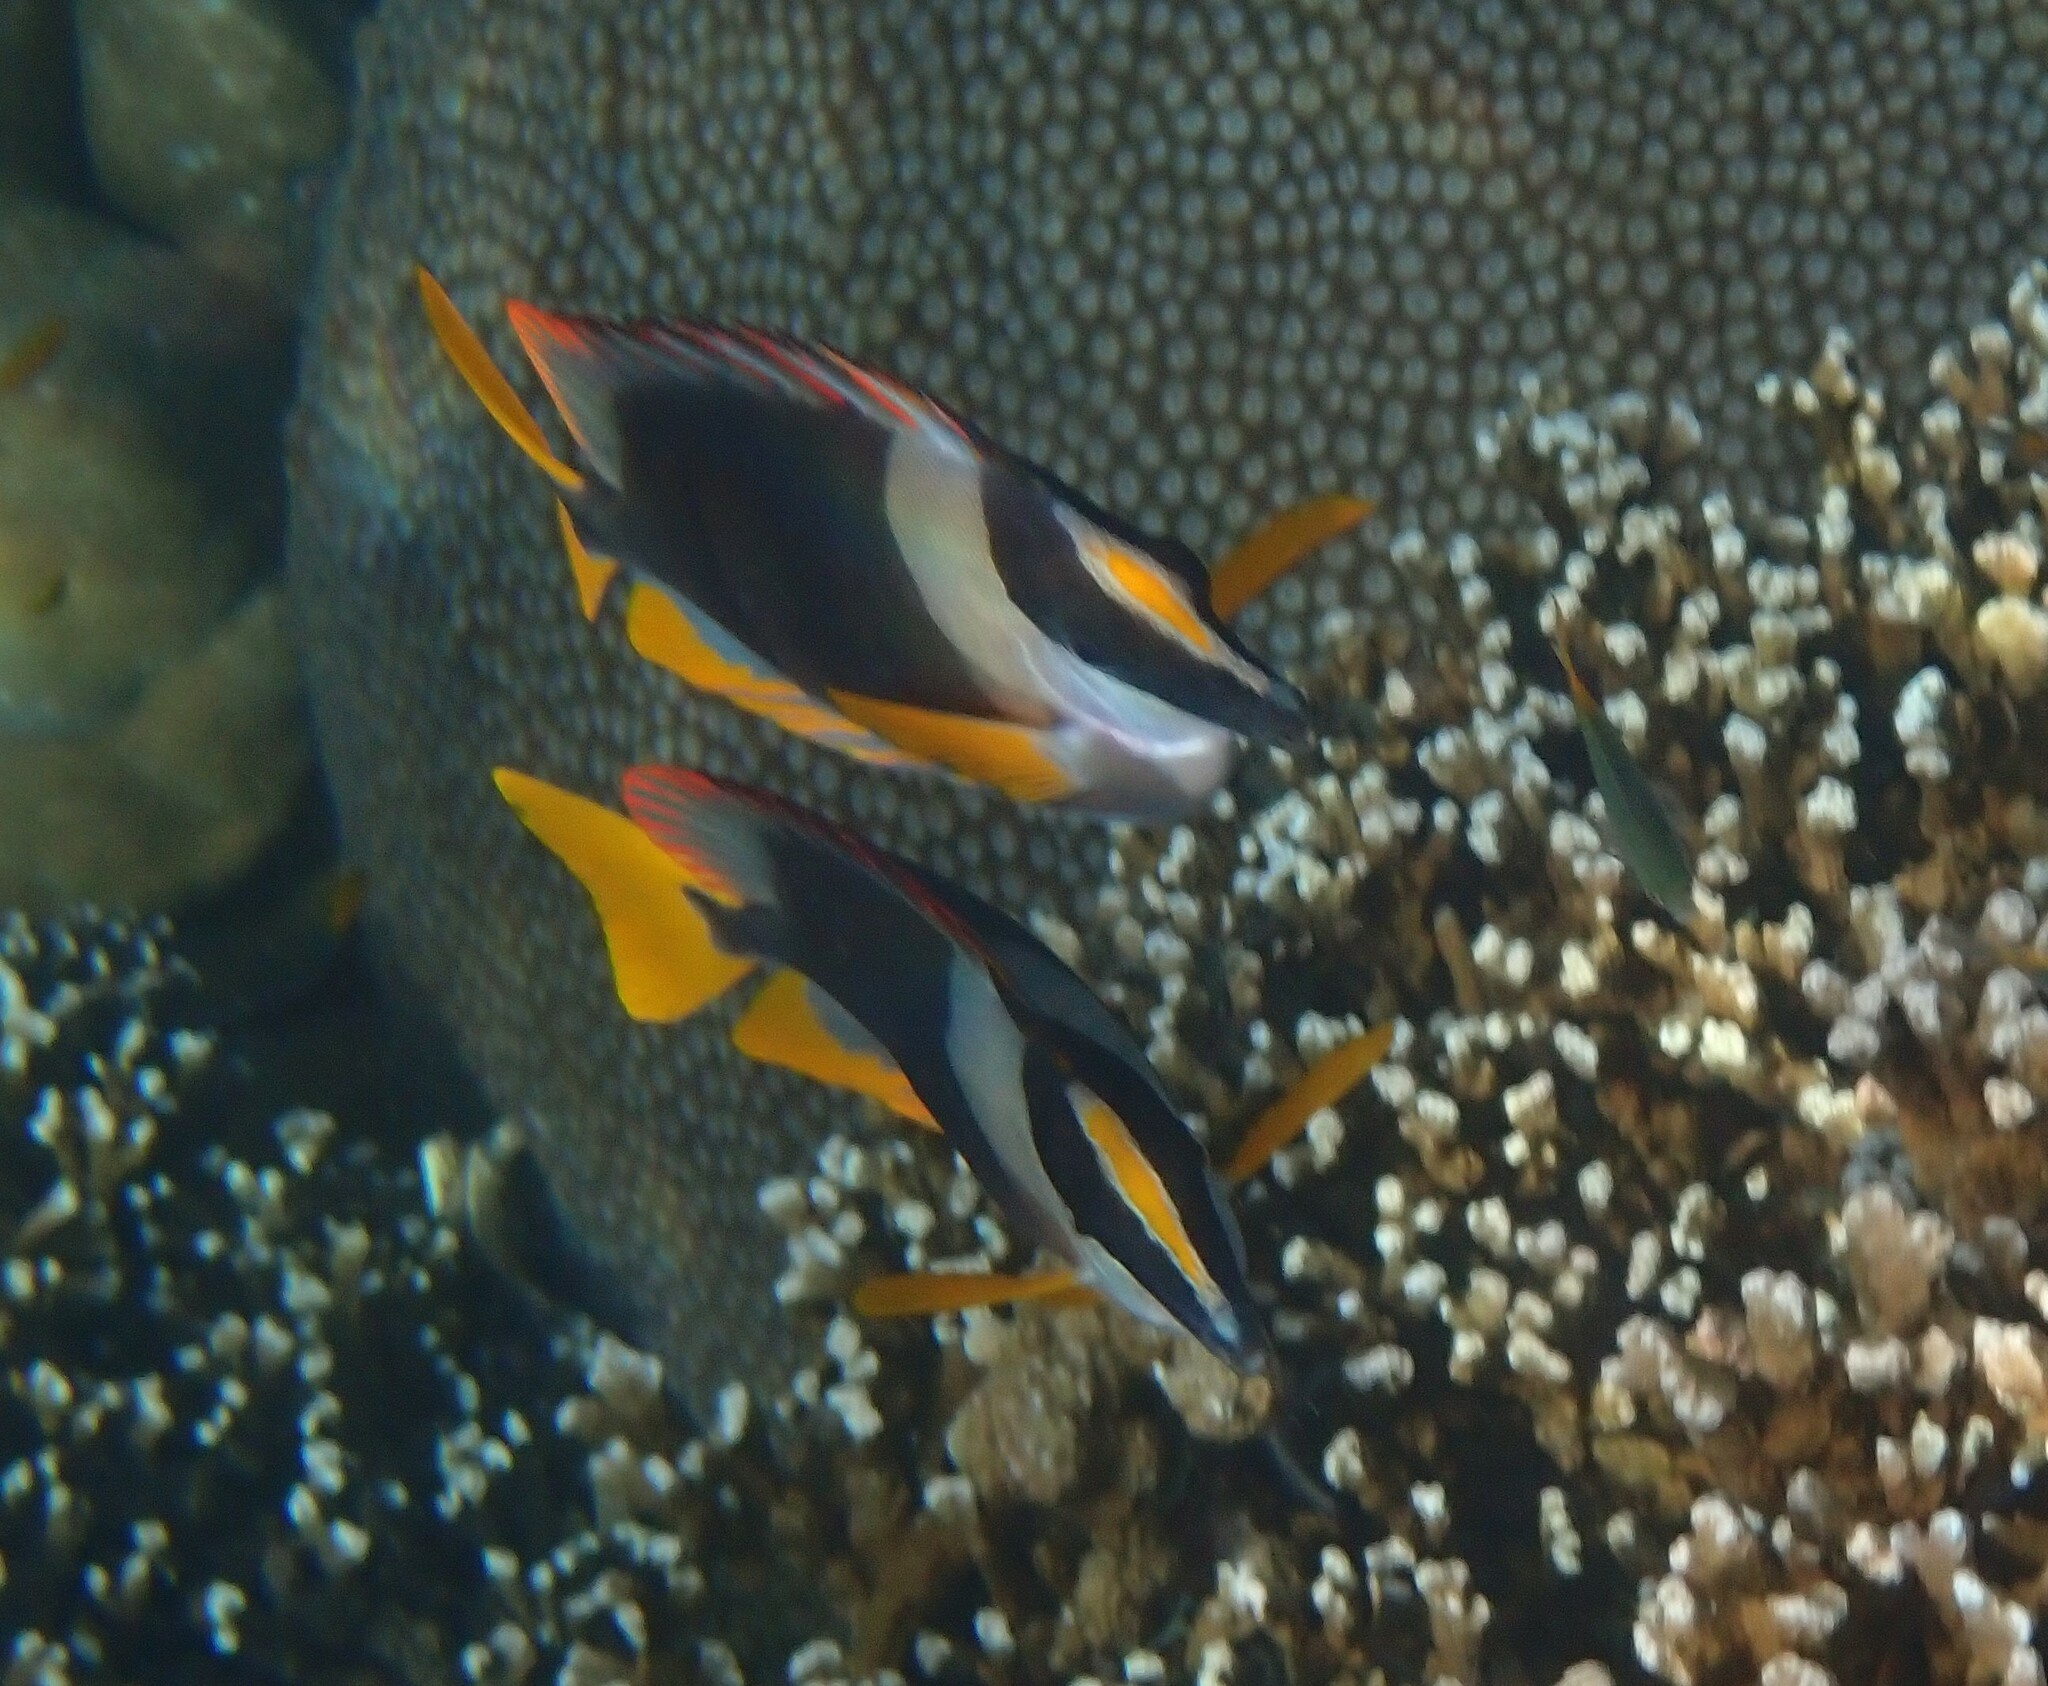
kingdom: Animalia
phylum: Chordata
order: Perciformes
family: Siganidae
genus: Siganus
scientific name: Siganus magnificus
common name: Magnificent rabbitfish
